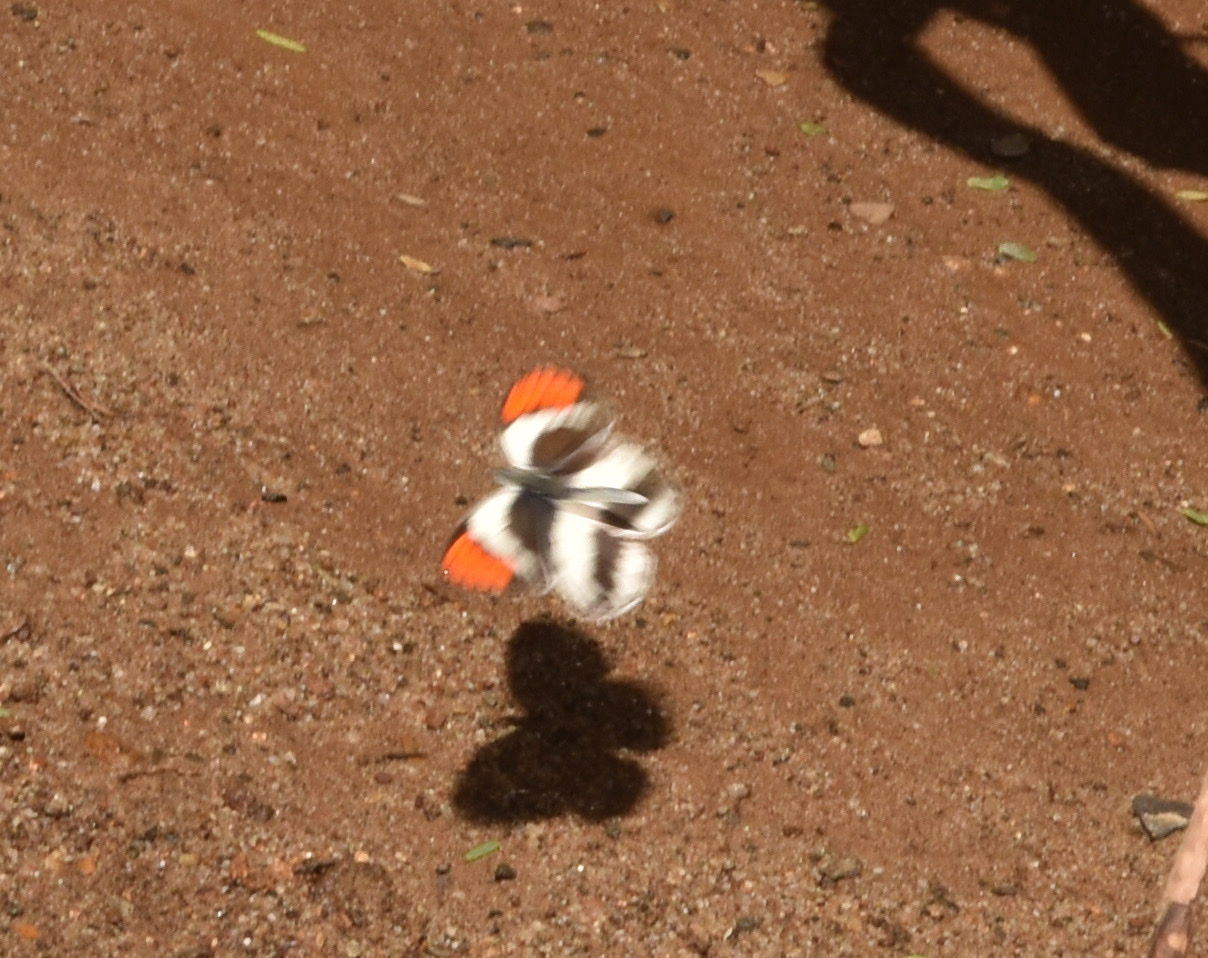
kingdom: Animalia
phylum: Arthropoda
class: Insecta
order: Lepidoptera
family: Pieridae
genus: Colotis
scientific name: Colotis euippe
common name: Round-winged orange tip
